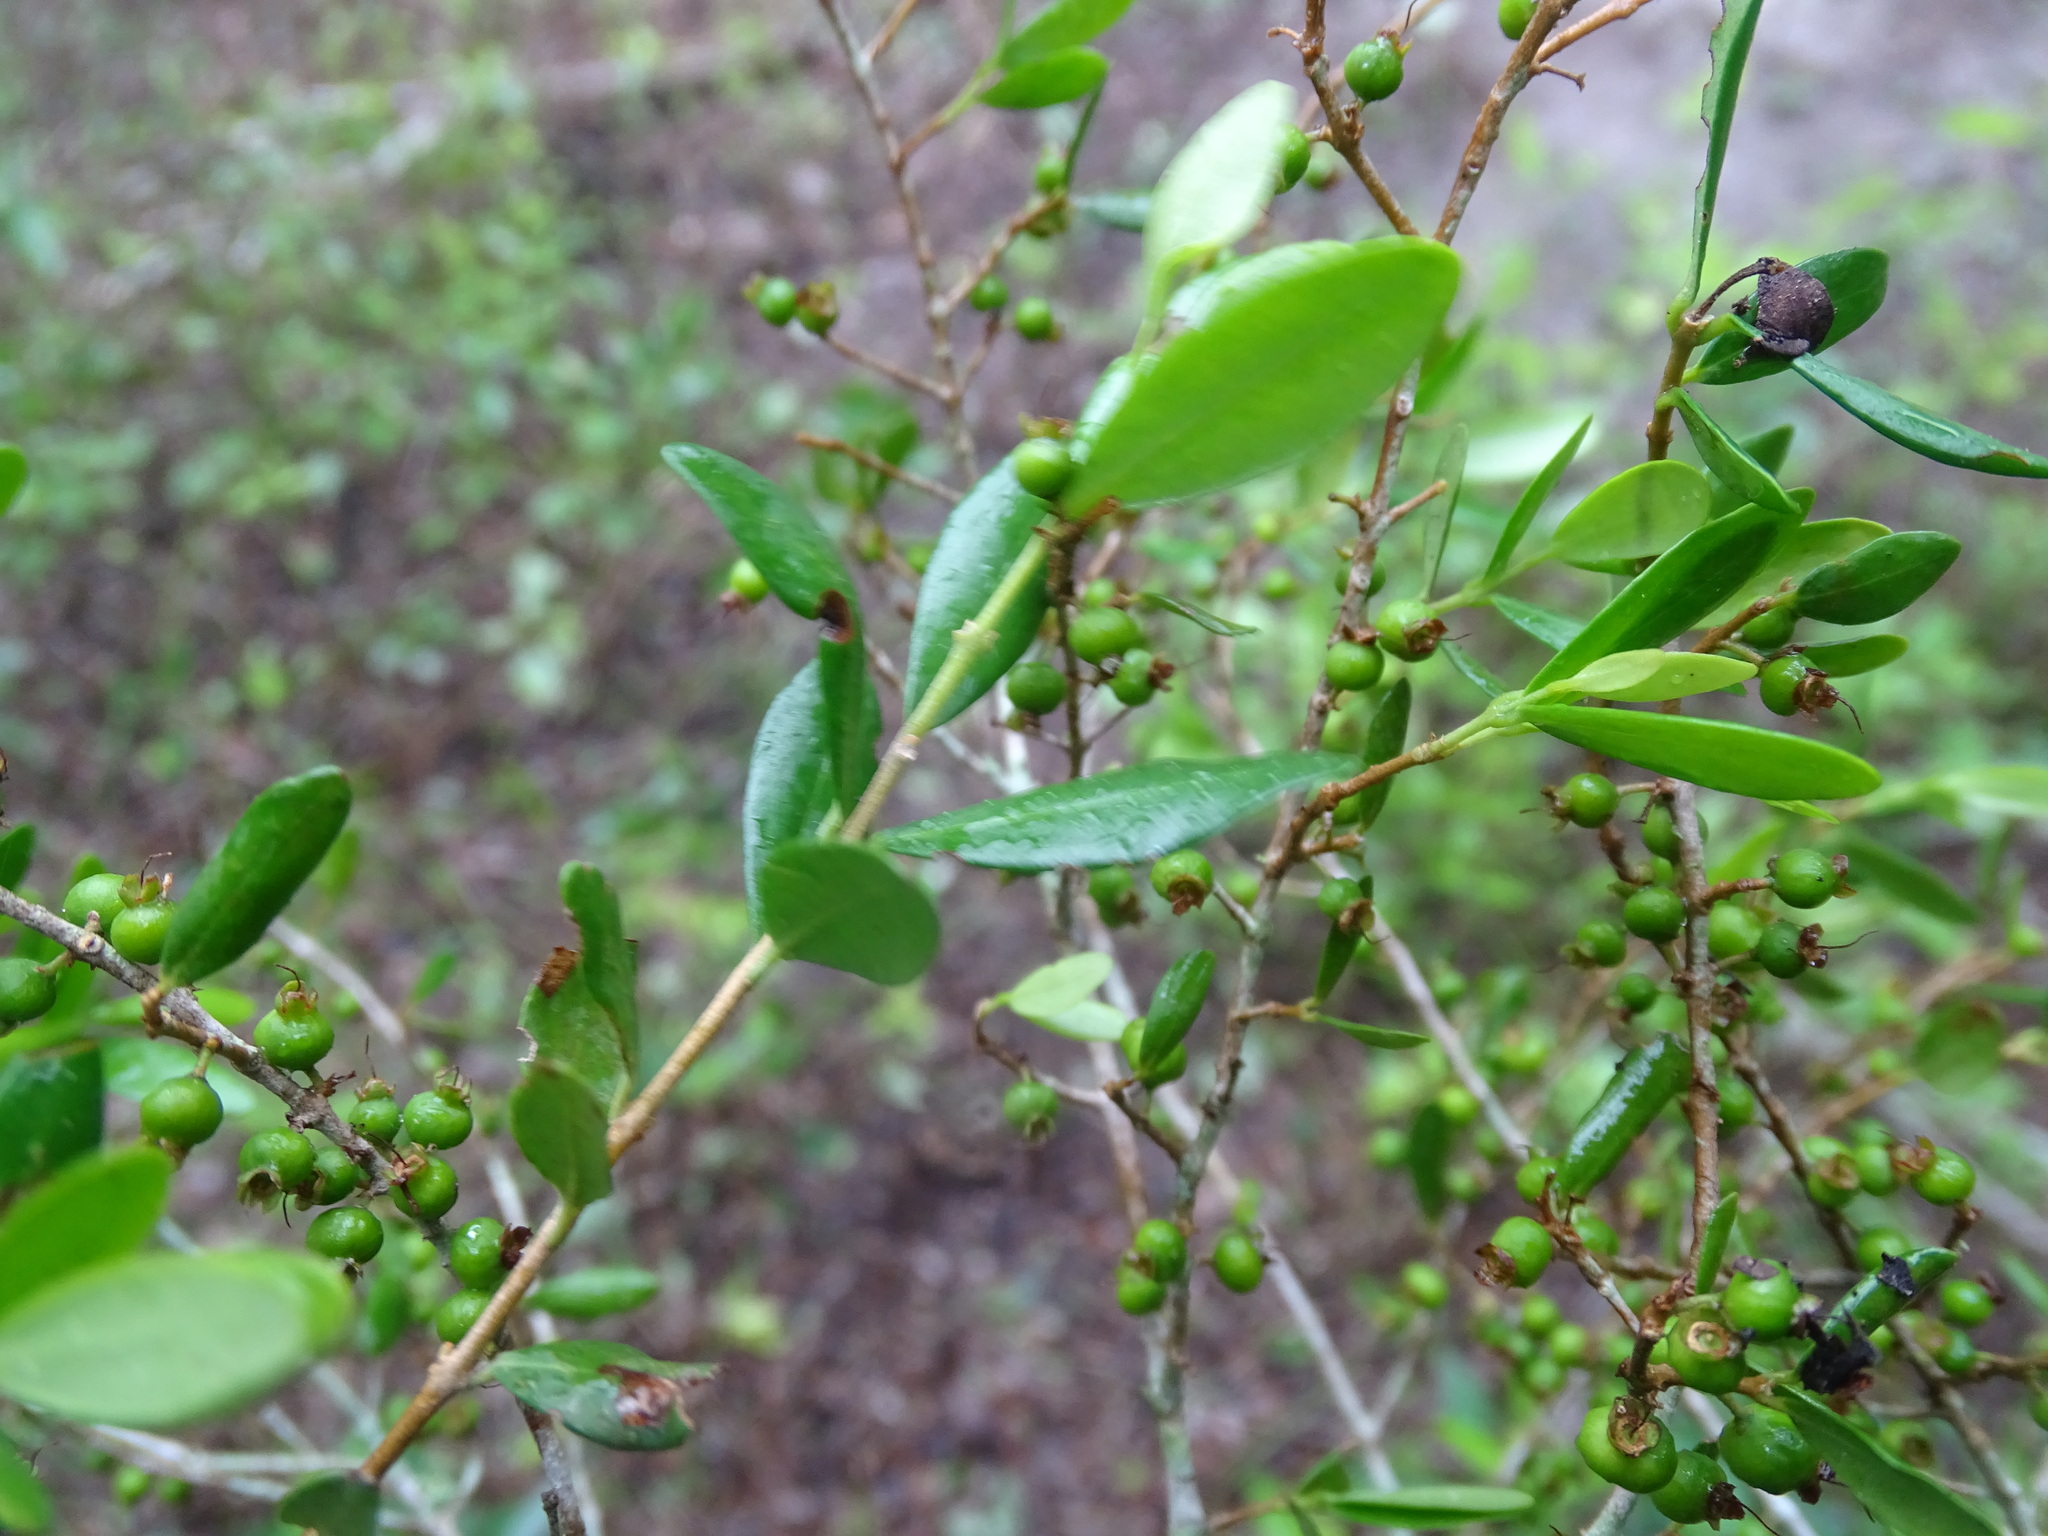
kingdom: Plantae
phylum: Tracheophyta
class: Magnoliopsida
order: Myrtales
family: Myrtaceae
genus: Mosiera
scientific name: Mosiera ehrenbergii
